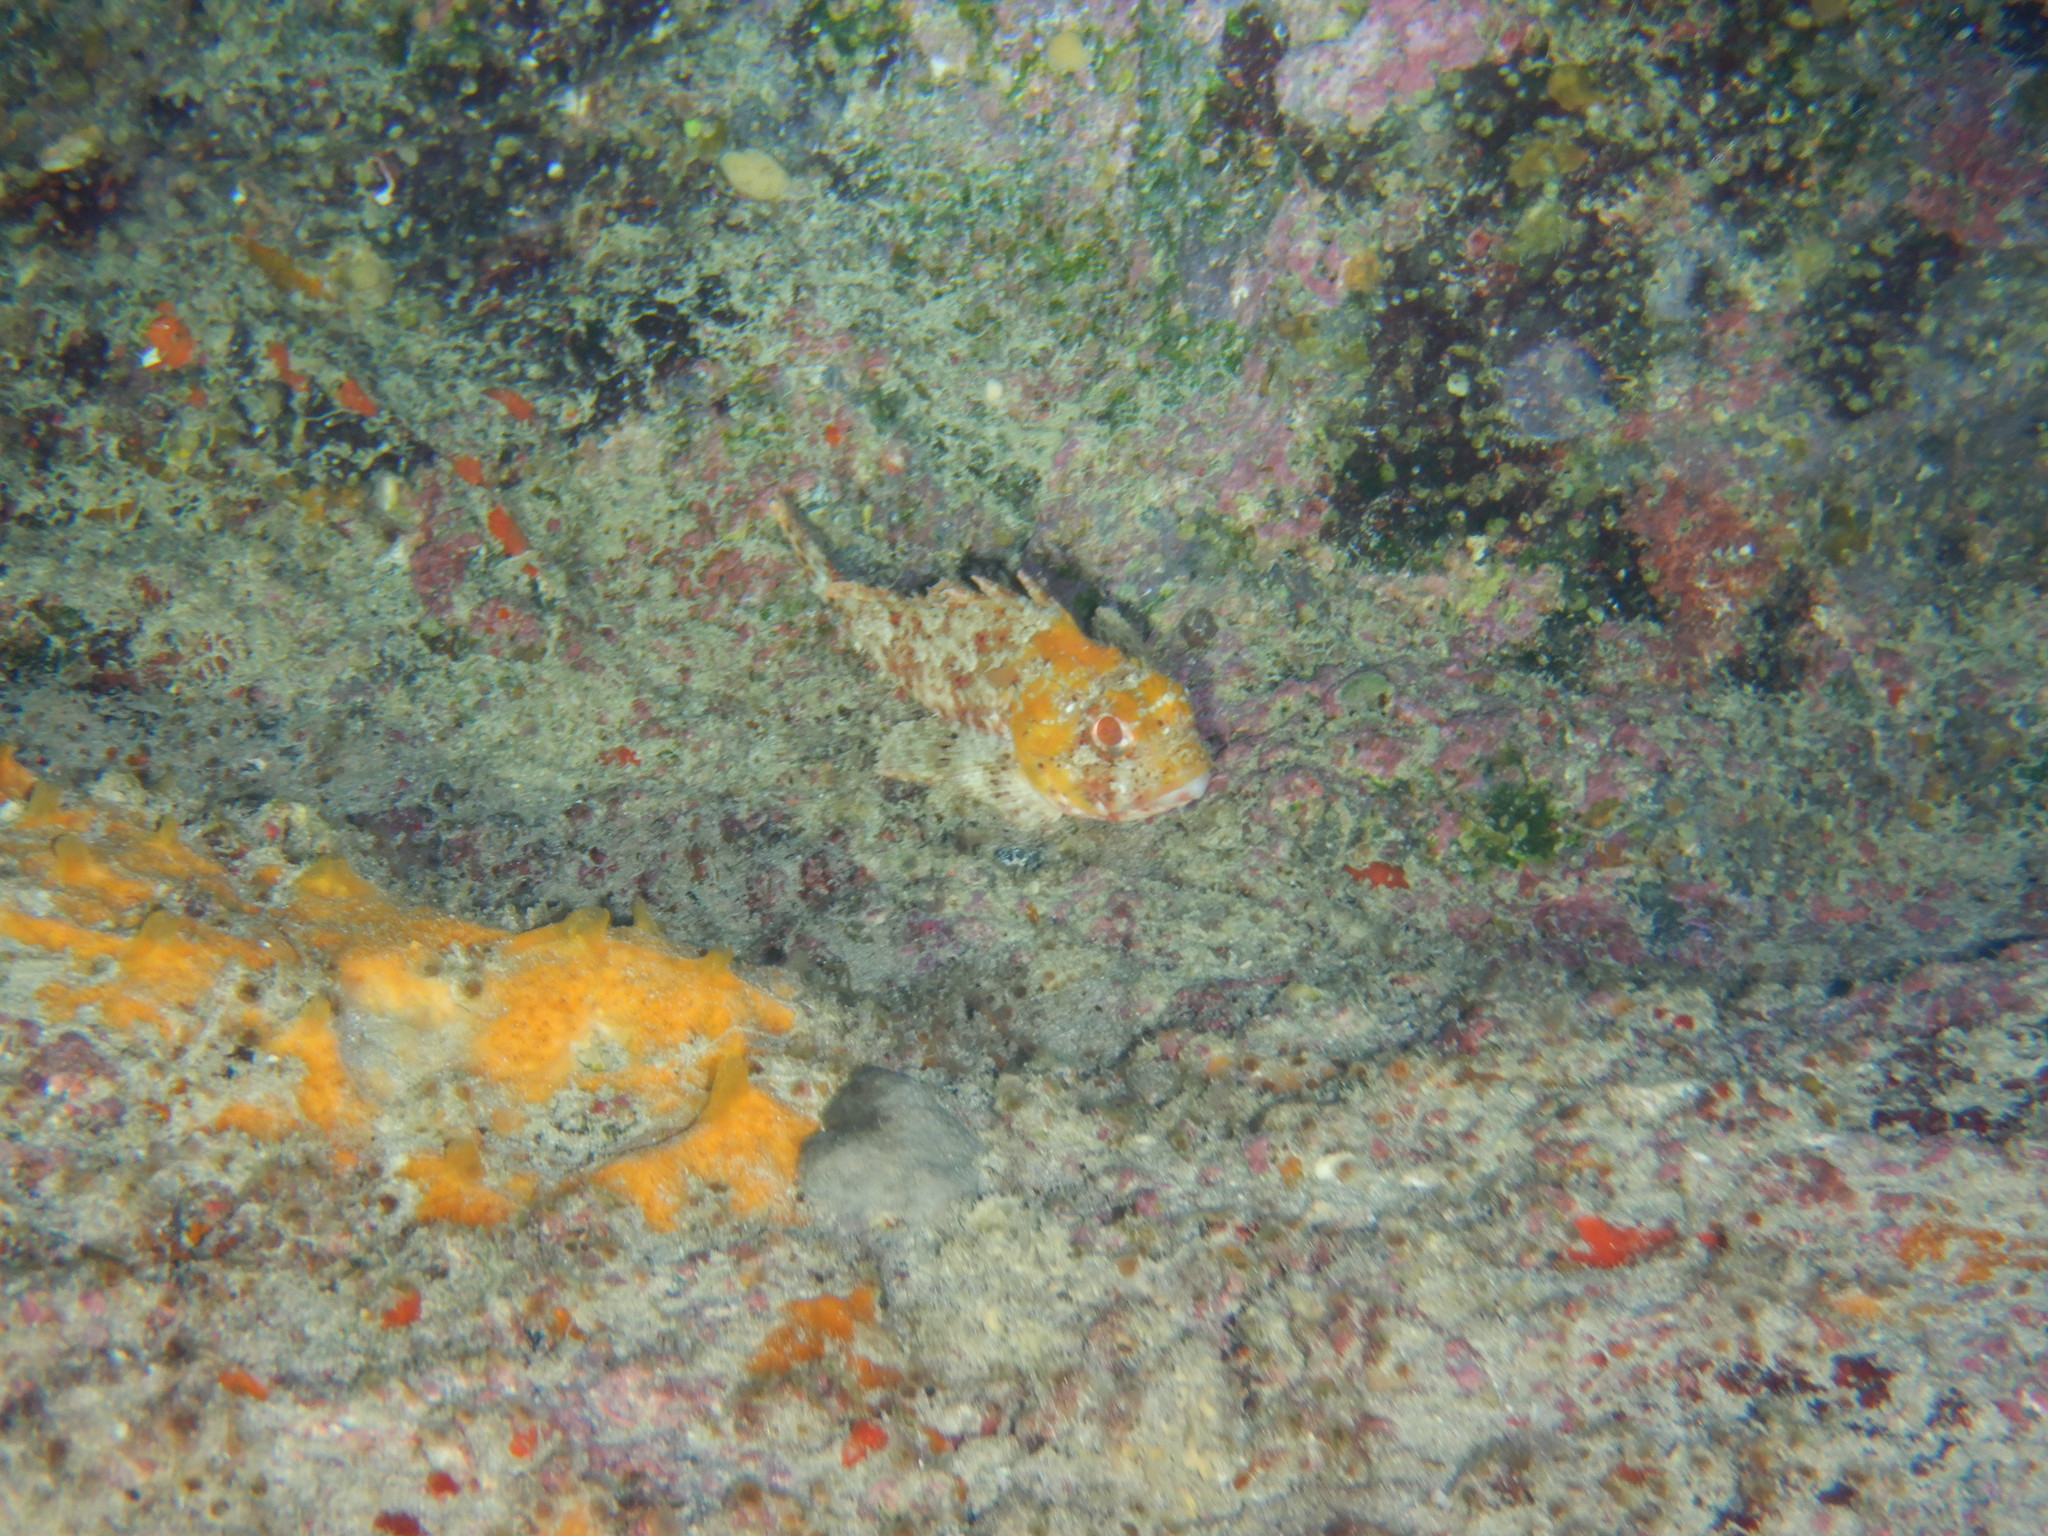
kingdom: Animalia
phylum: Chordata
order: Scorpaeniformes
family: Scorpaenidae
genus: Scorpaena
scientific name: Scorpaena notata
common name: Small red scorpionfish
